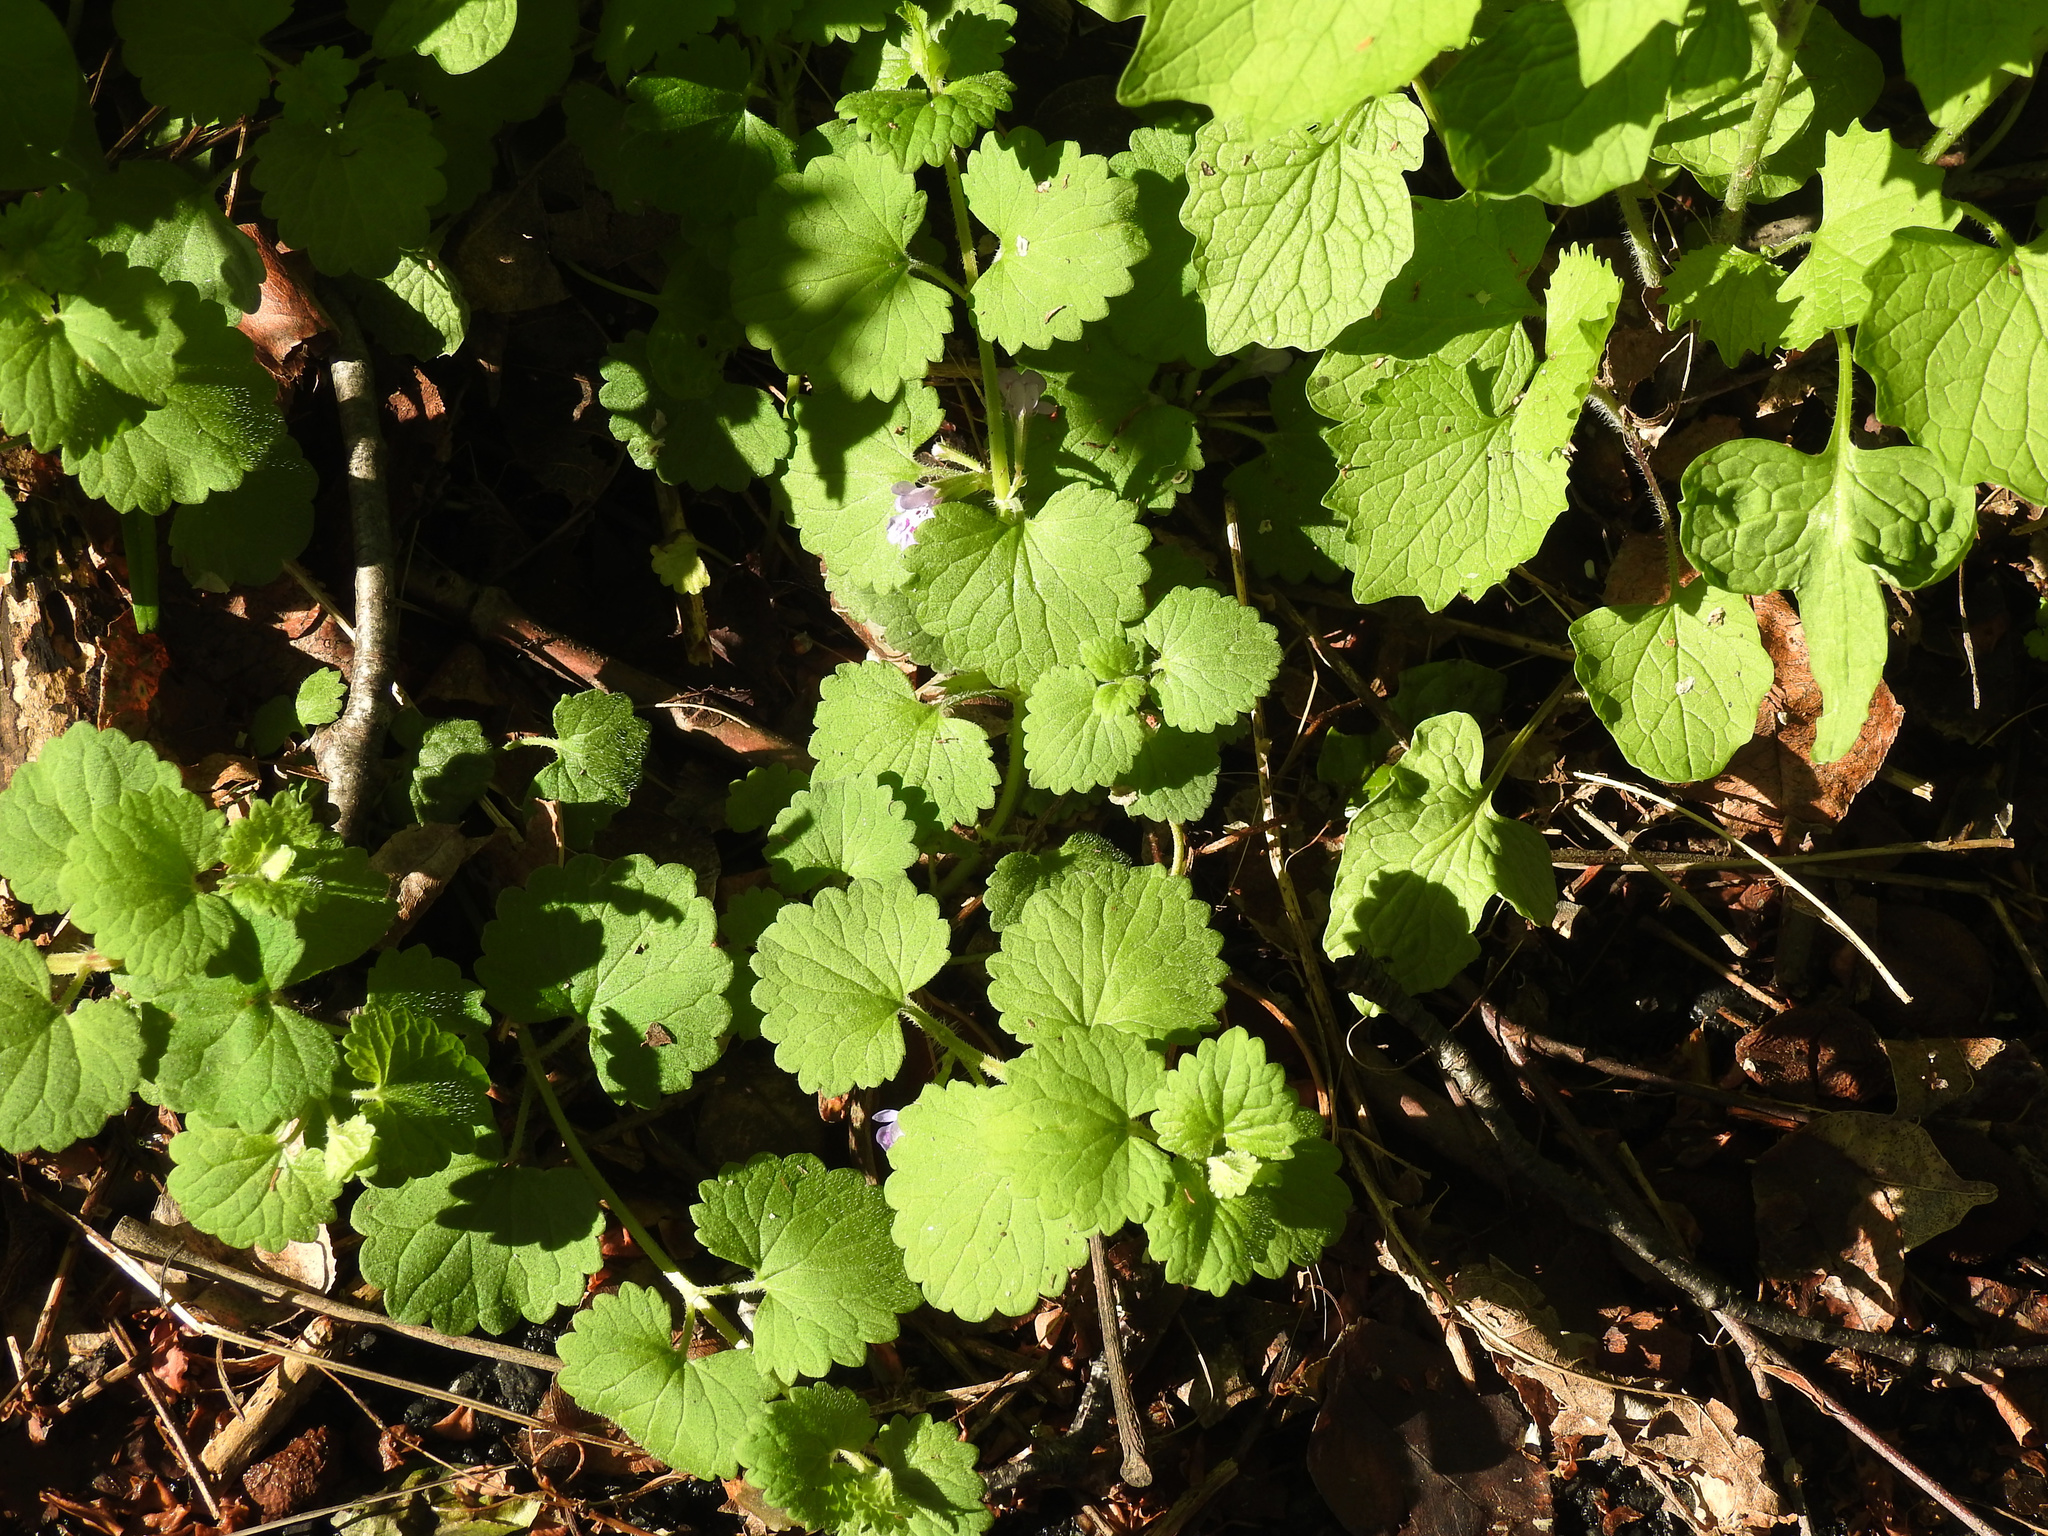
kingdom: Plantae
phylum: Tracheophyta
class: Magnoliopsida
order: Lamiales
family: Lamiaceae
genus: Glechoma
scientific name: Glechoma hederacea
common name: Ground ivy
